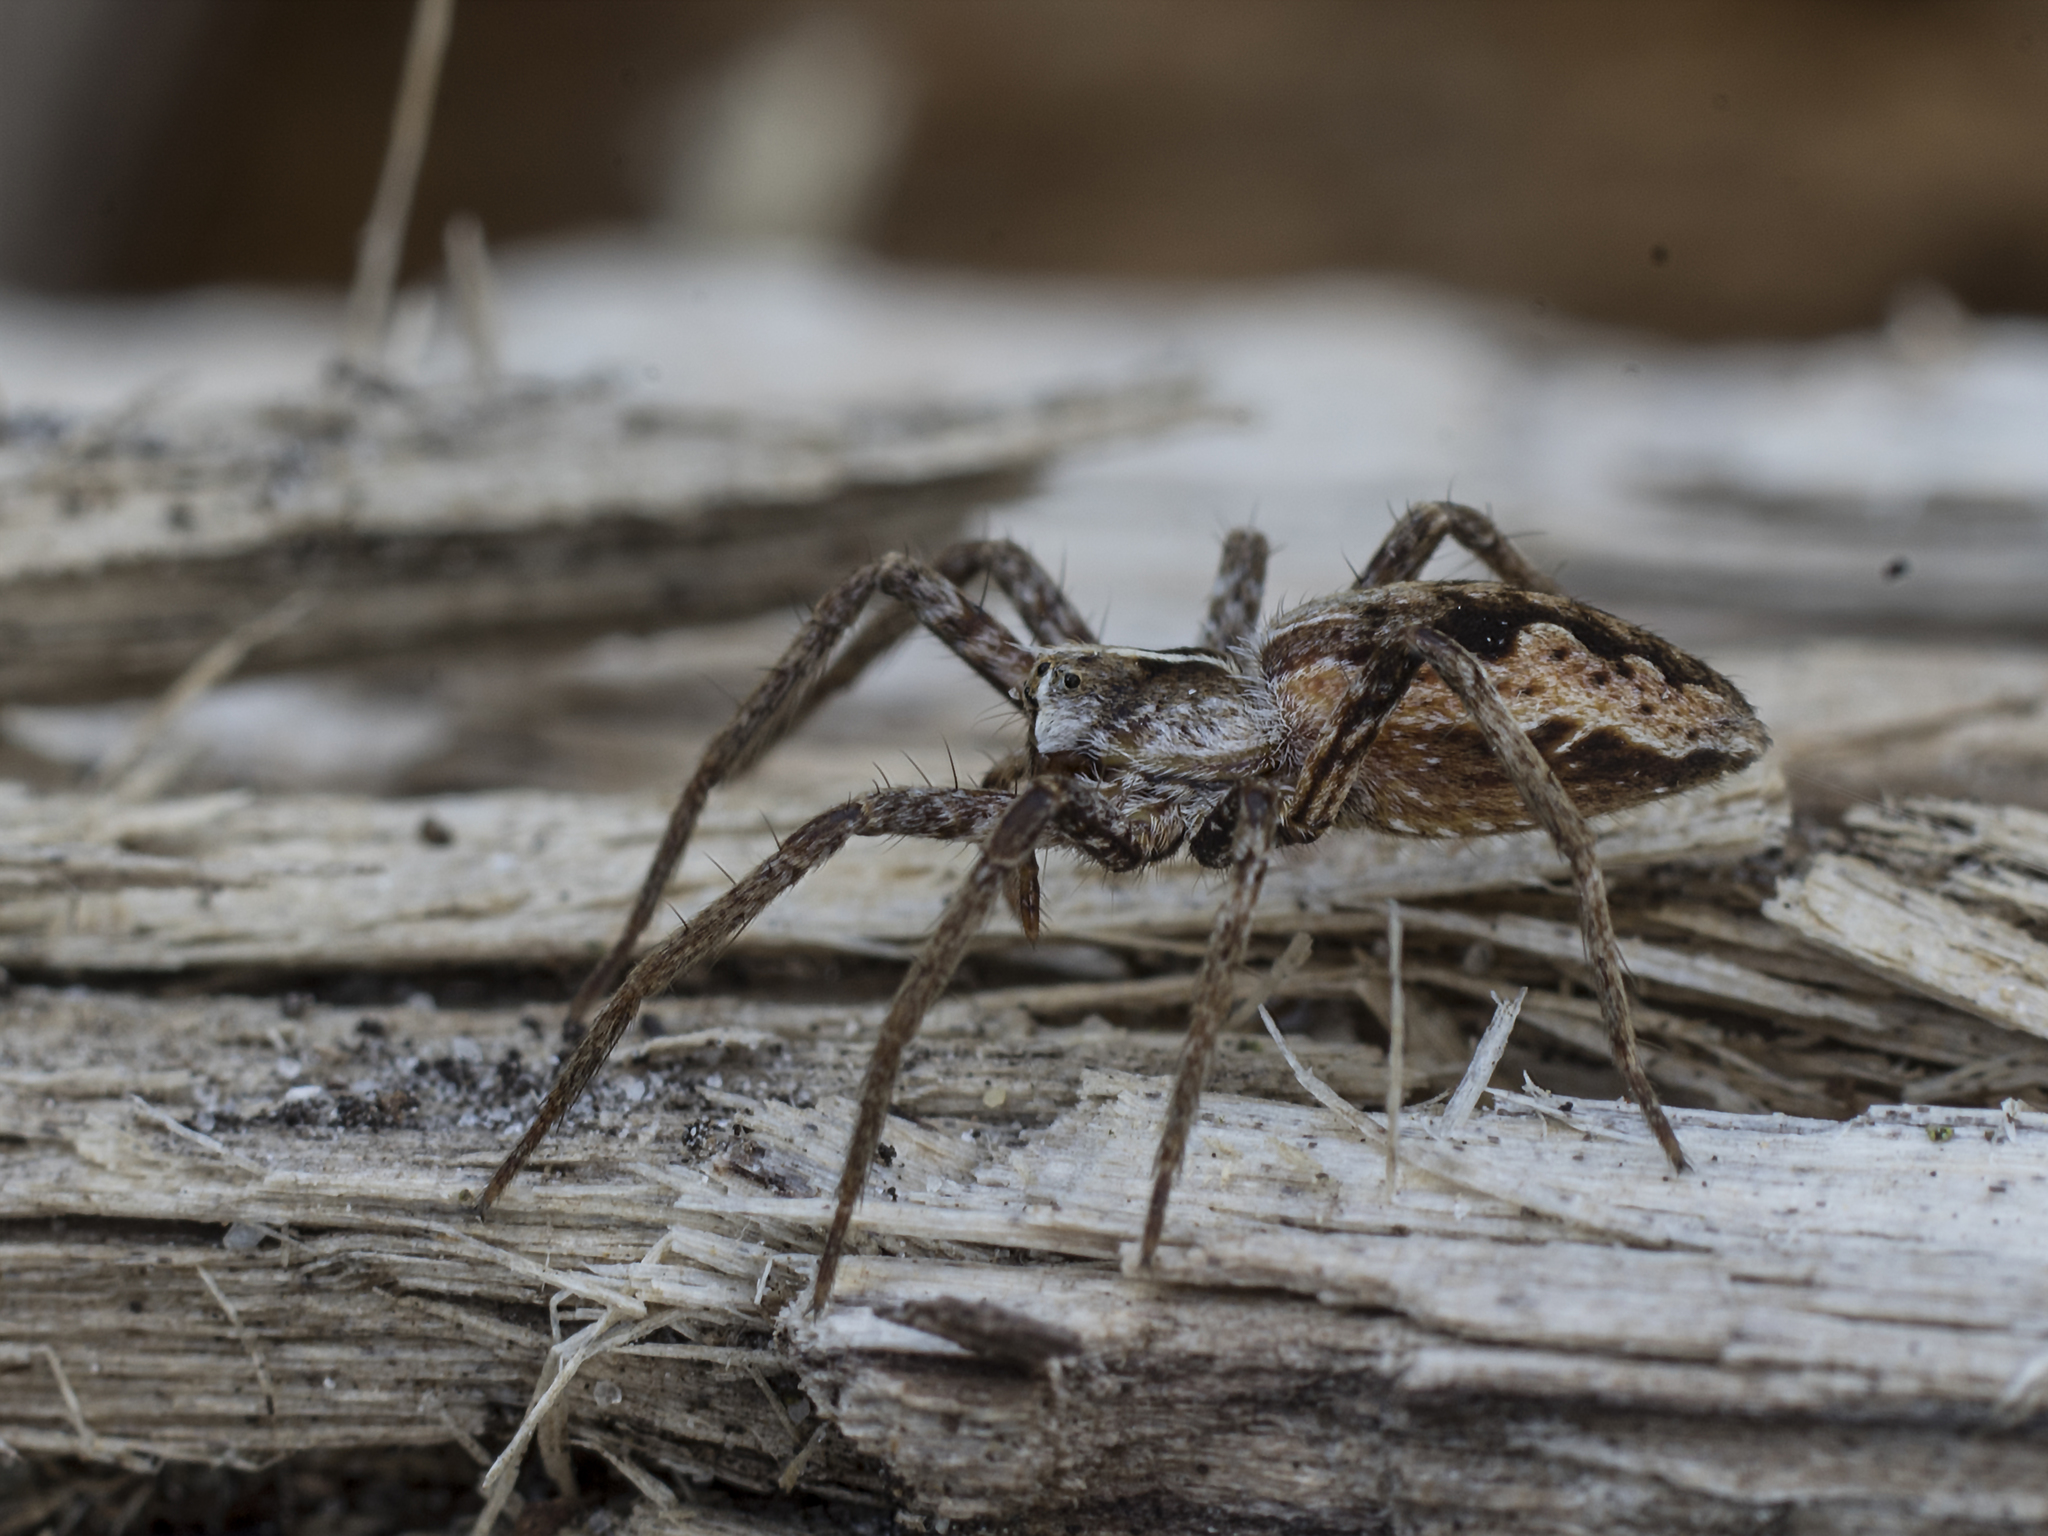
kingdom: Animalia
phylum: Arthropoda
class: Arachnida
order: Araneae
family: Pisauridae
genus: Pisaura
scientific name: Pisaura mirabilis
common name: Tent spider
